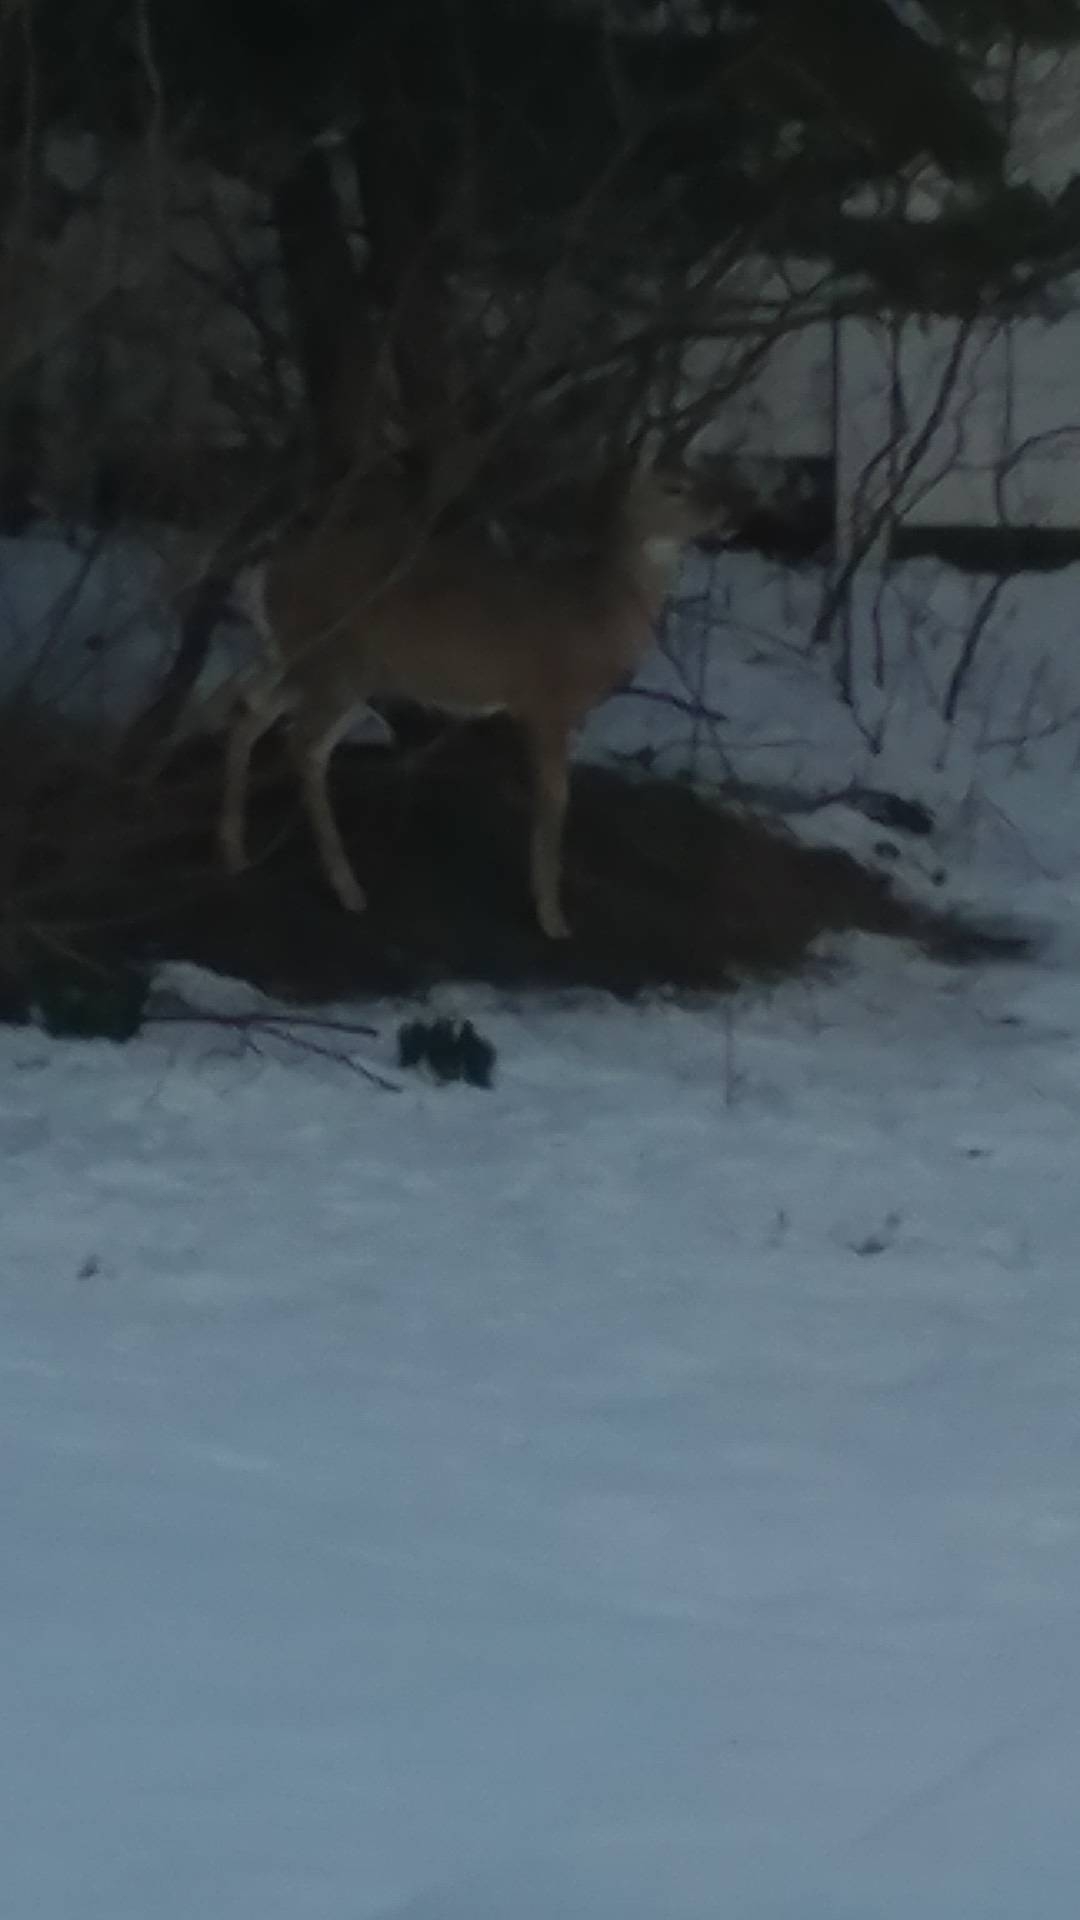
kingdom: Animalia
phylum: Chordata
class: Mammalia
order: Artiodactyla
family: Cervidae
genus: Odocoileus
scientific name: Odocoileus virginianus
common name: White-tailed deer
